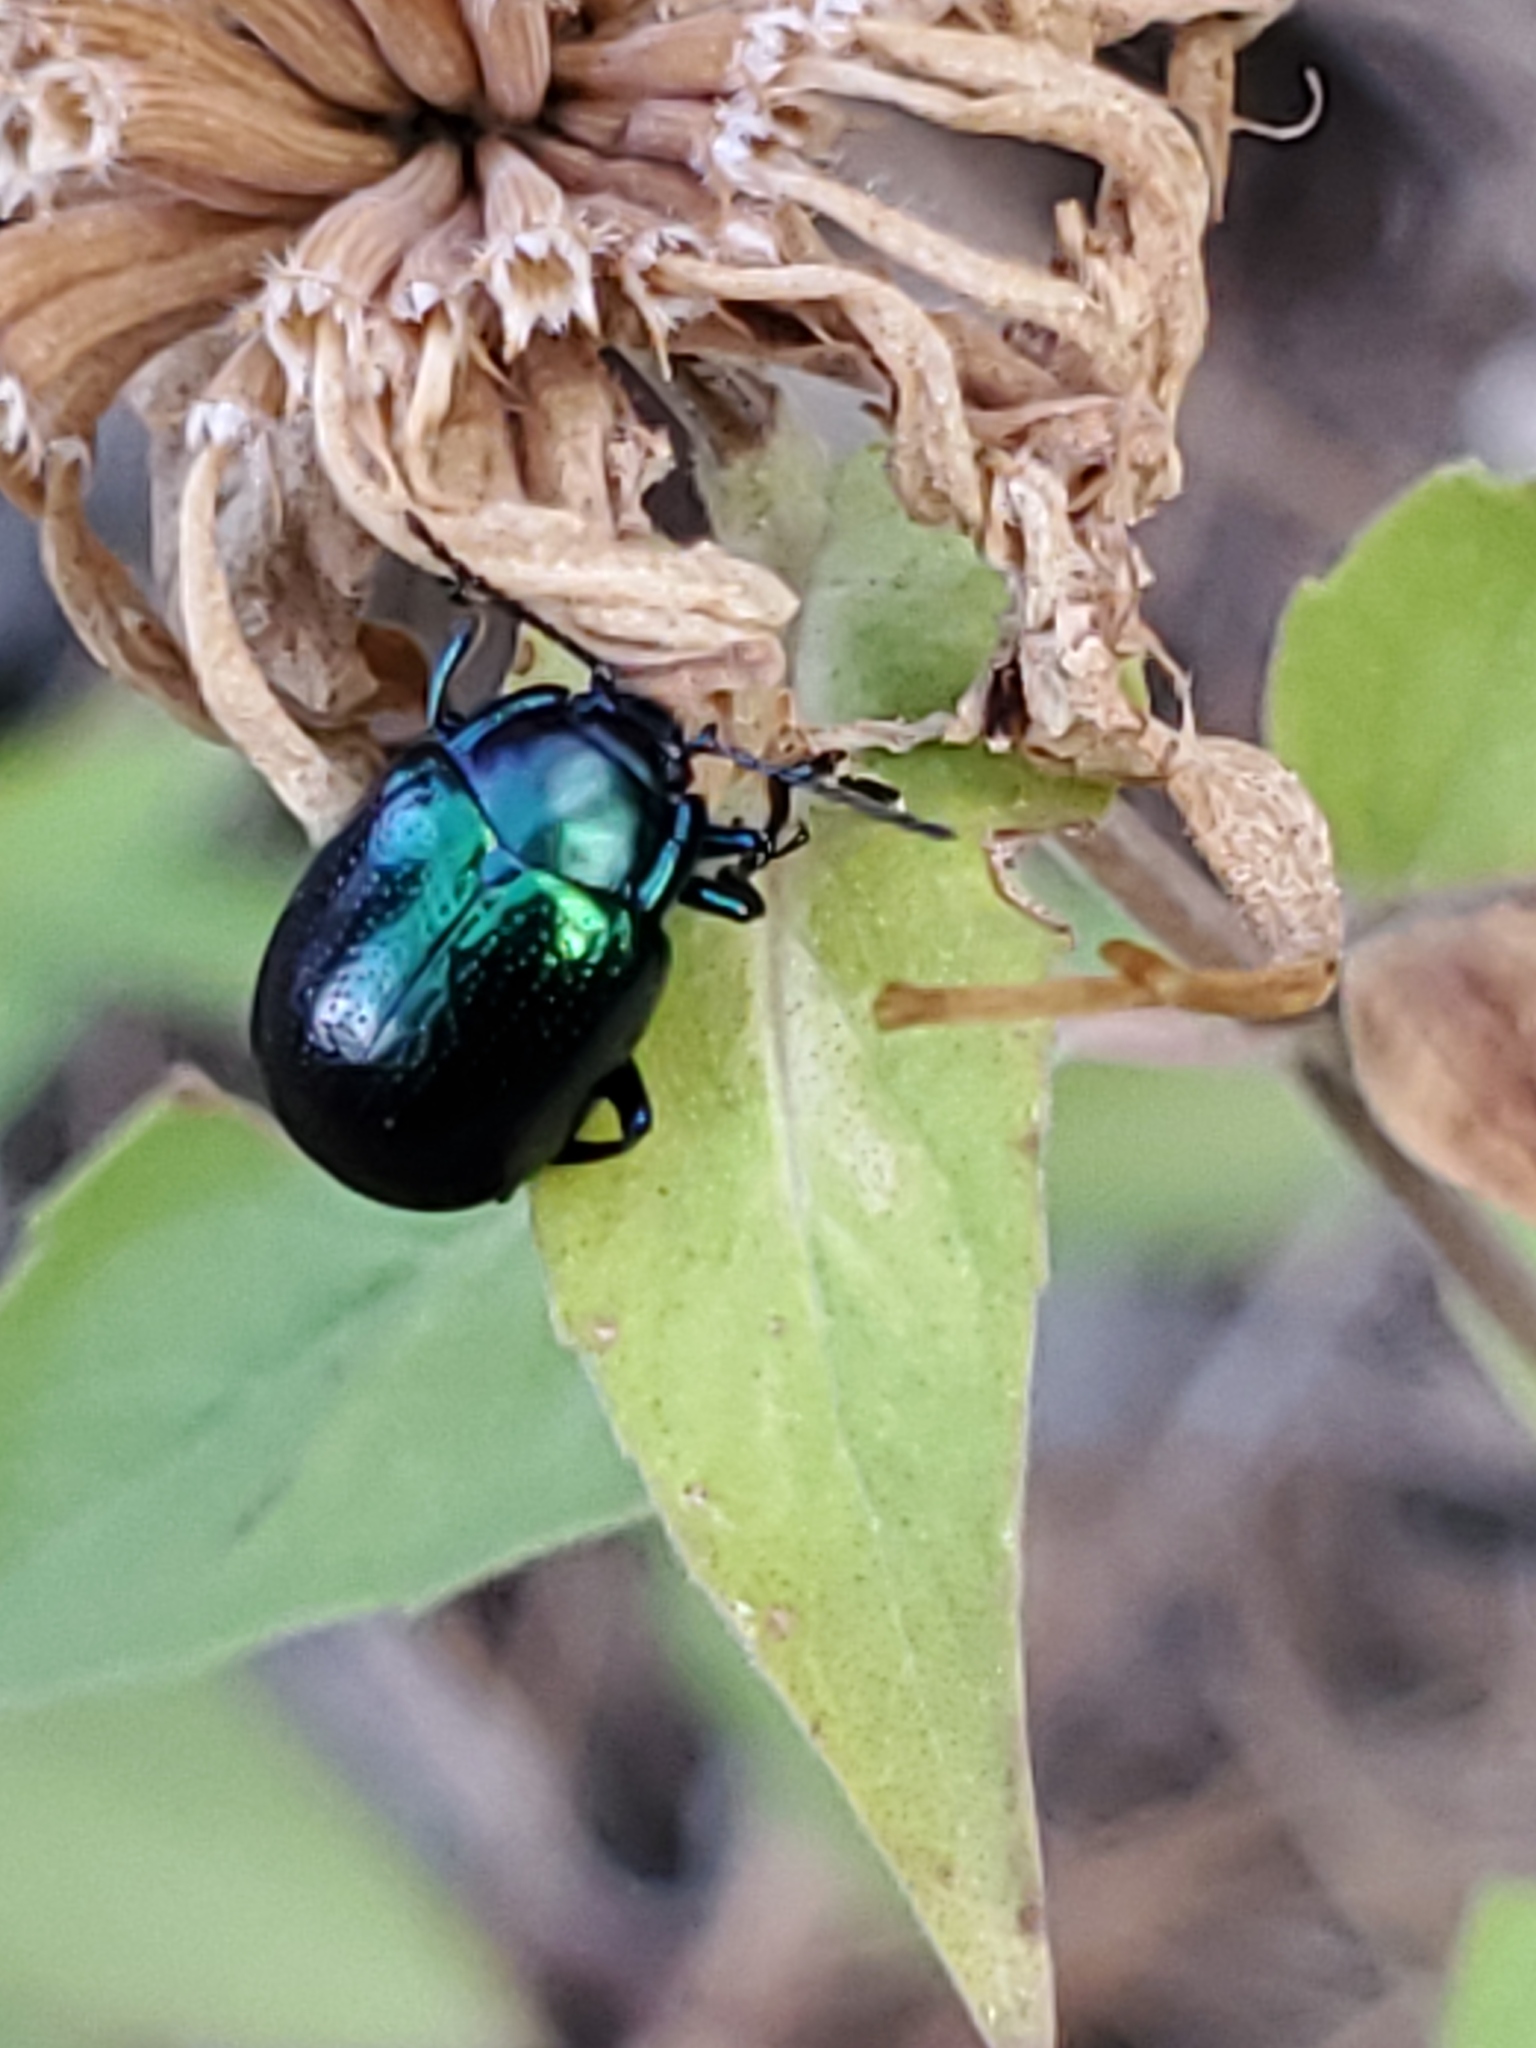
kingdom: Animalia
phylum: Arthropoda
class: Insecta
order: Coleoptera
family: Chrysomelidae
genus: Chrysolina
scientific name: Chrysolina auripennis
